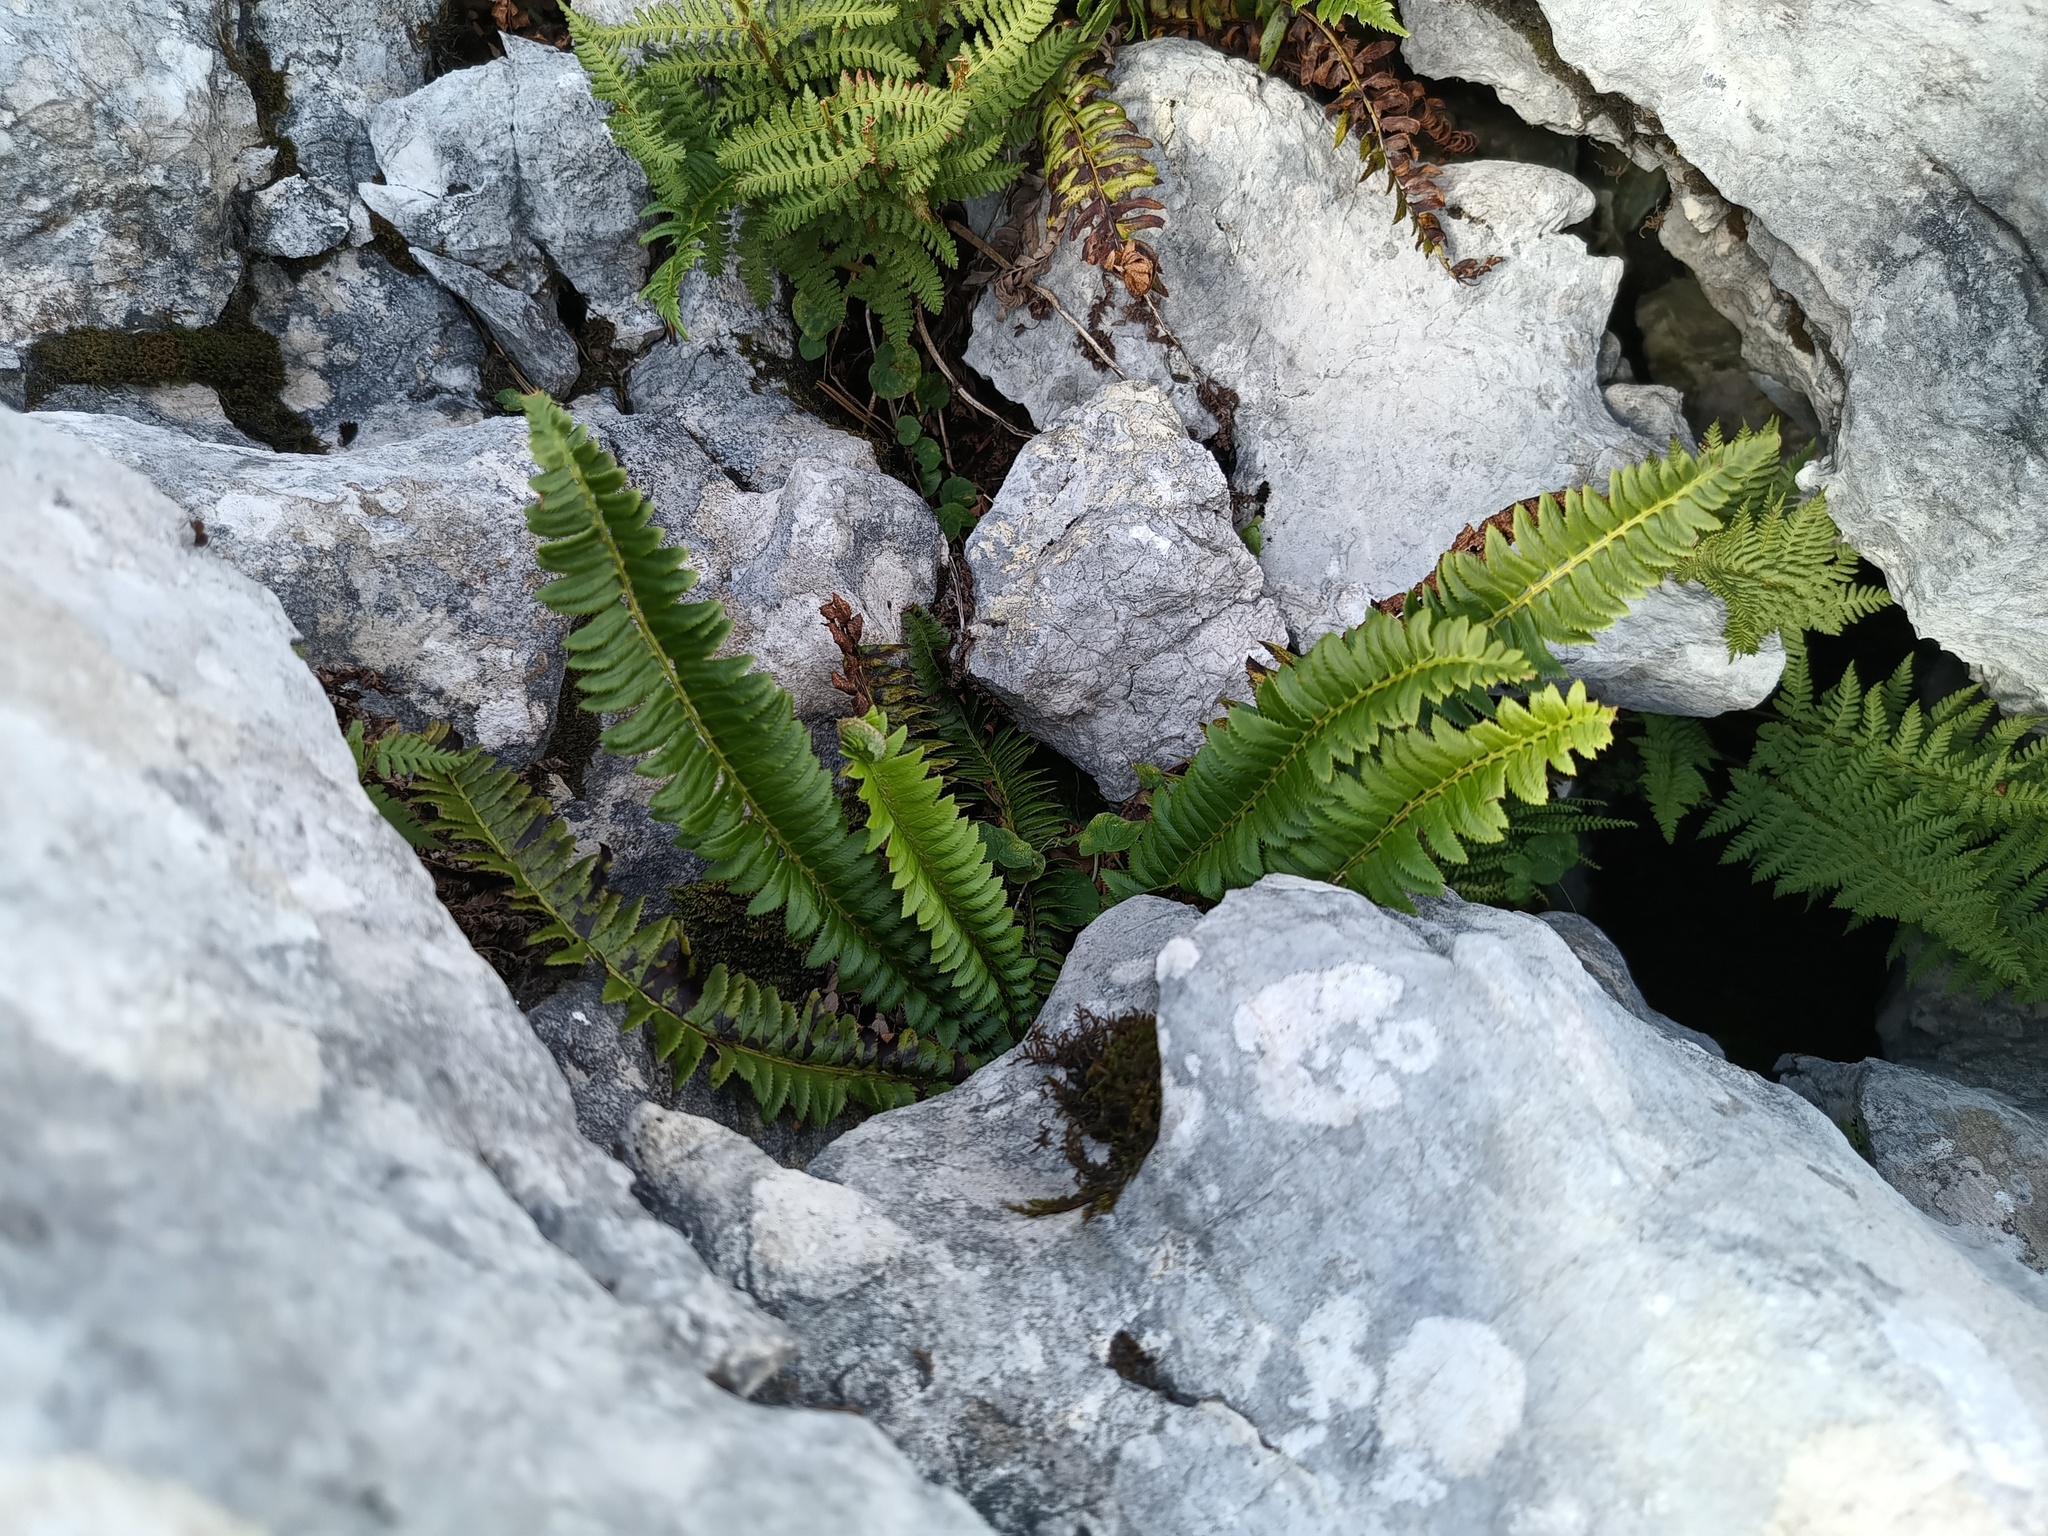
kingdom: Plantae
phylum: Tracheophyta
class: Polypodiopsida
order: Polypodiales
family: Dryopteridaceae
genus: Polystichum
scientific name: Polystichum lonchitis
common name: Holly fern
